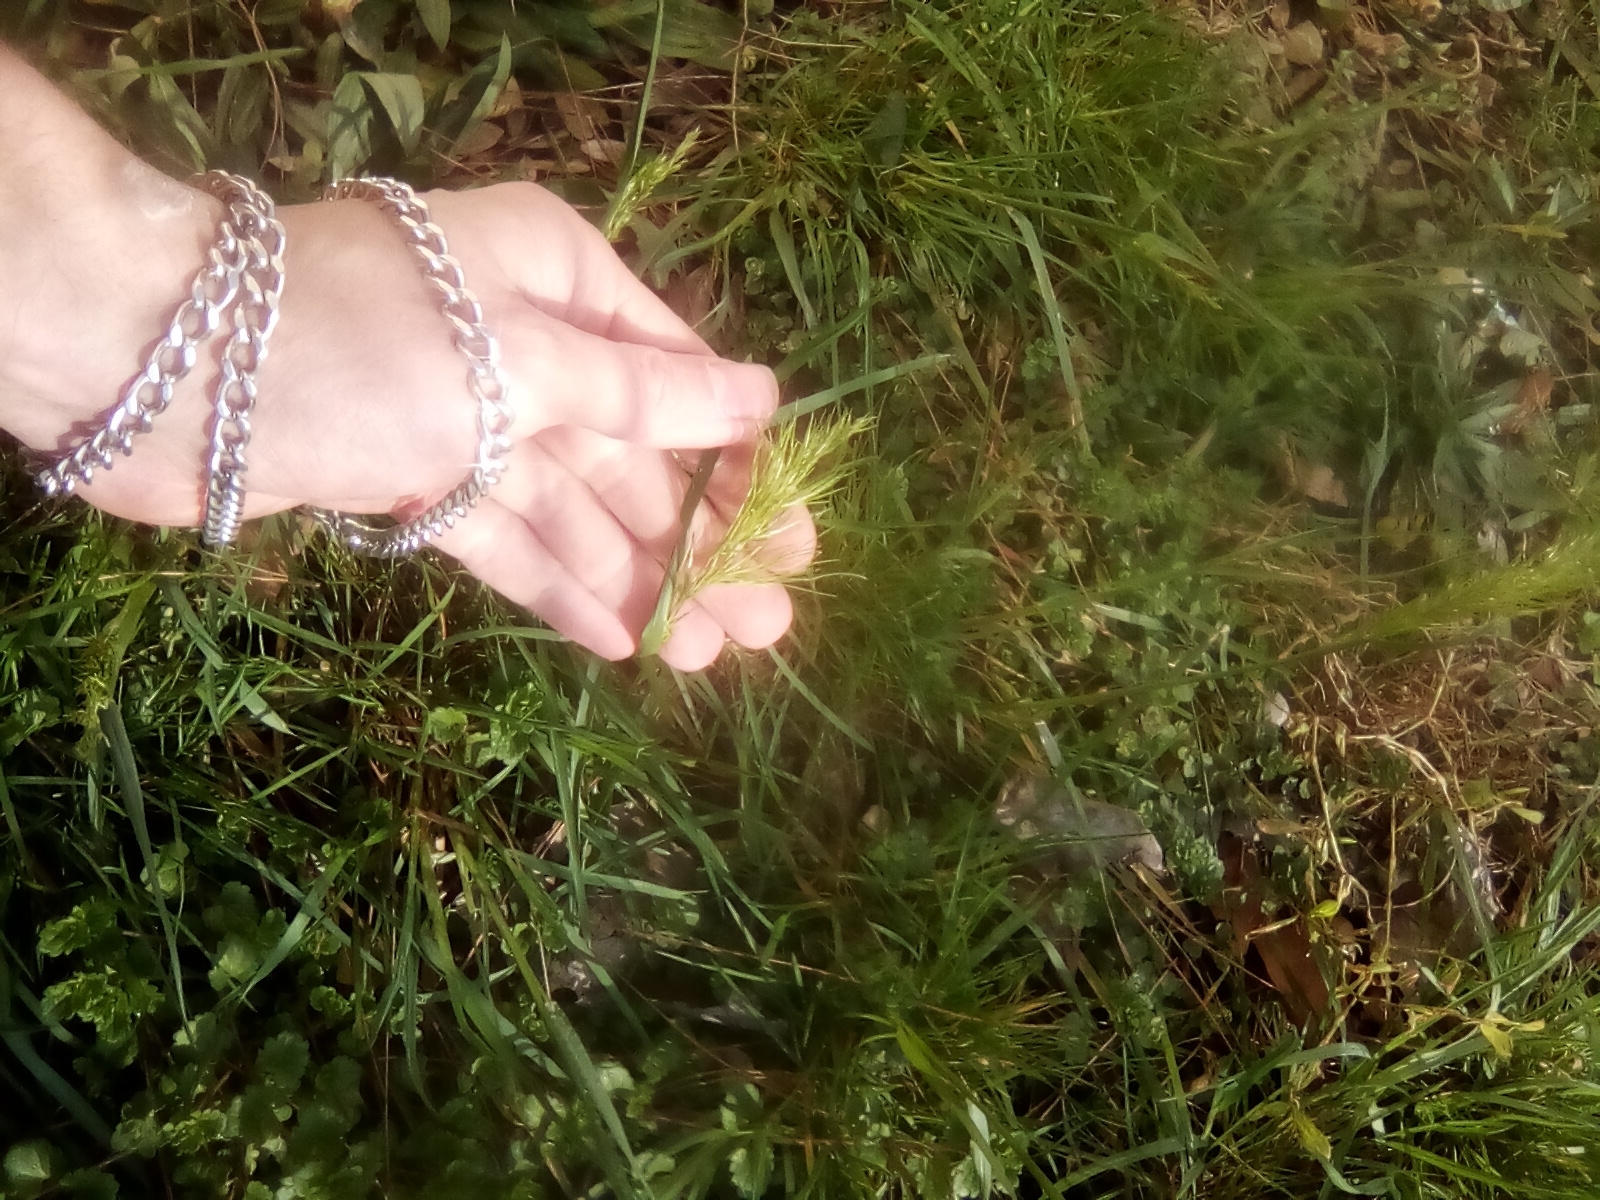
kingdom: Plantae
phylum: Tracheophyta
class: Liliopsida
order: Poales
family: Poaceae
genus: Poa
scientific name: Poa bulbosa
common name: Bulbous bluegrass
